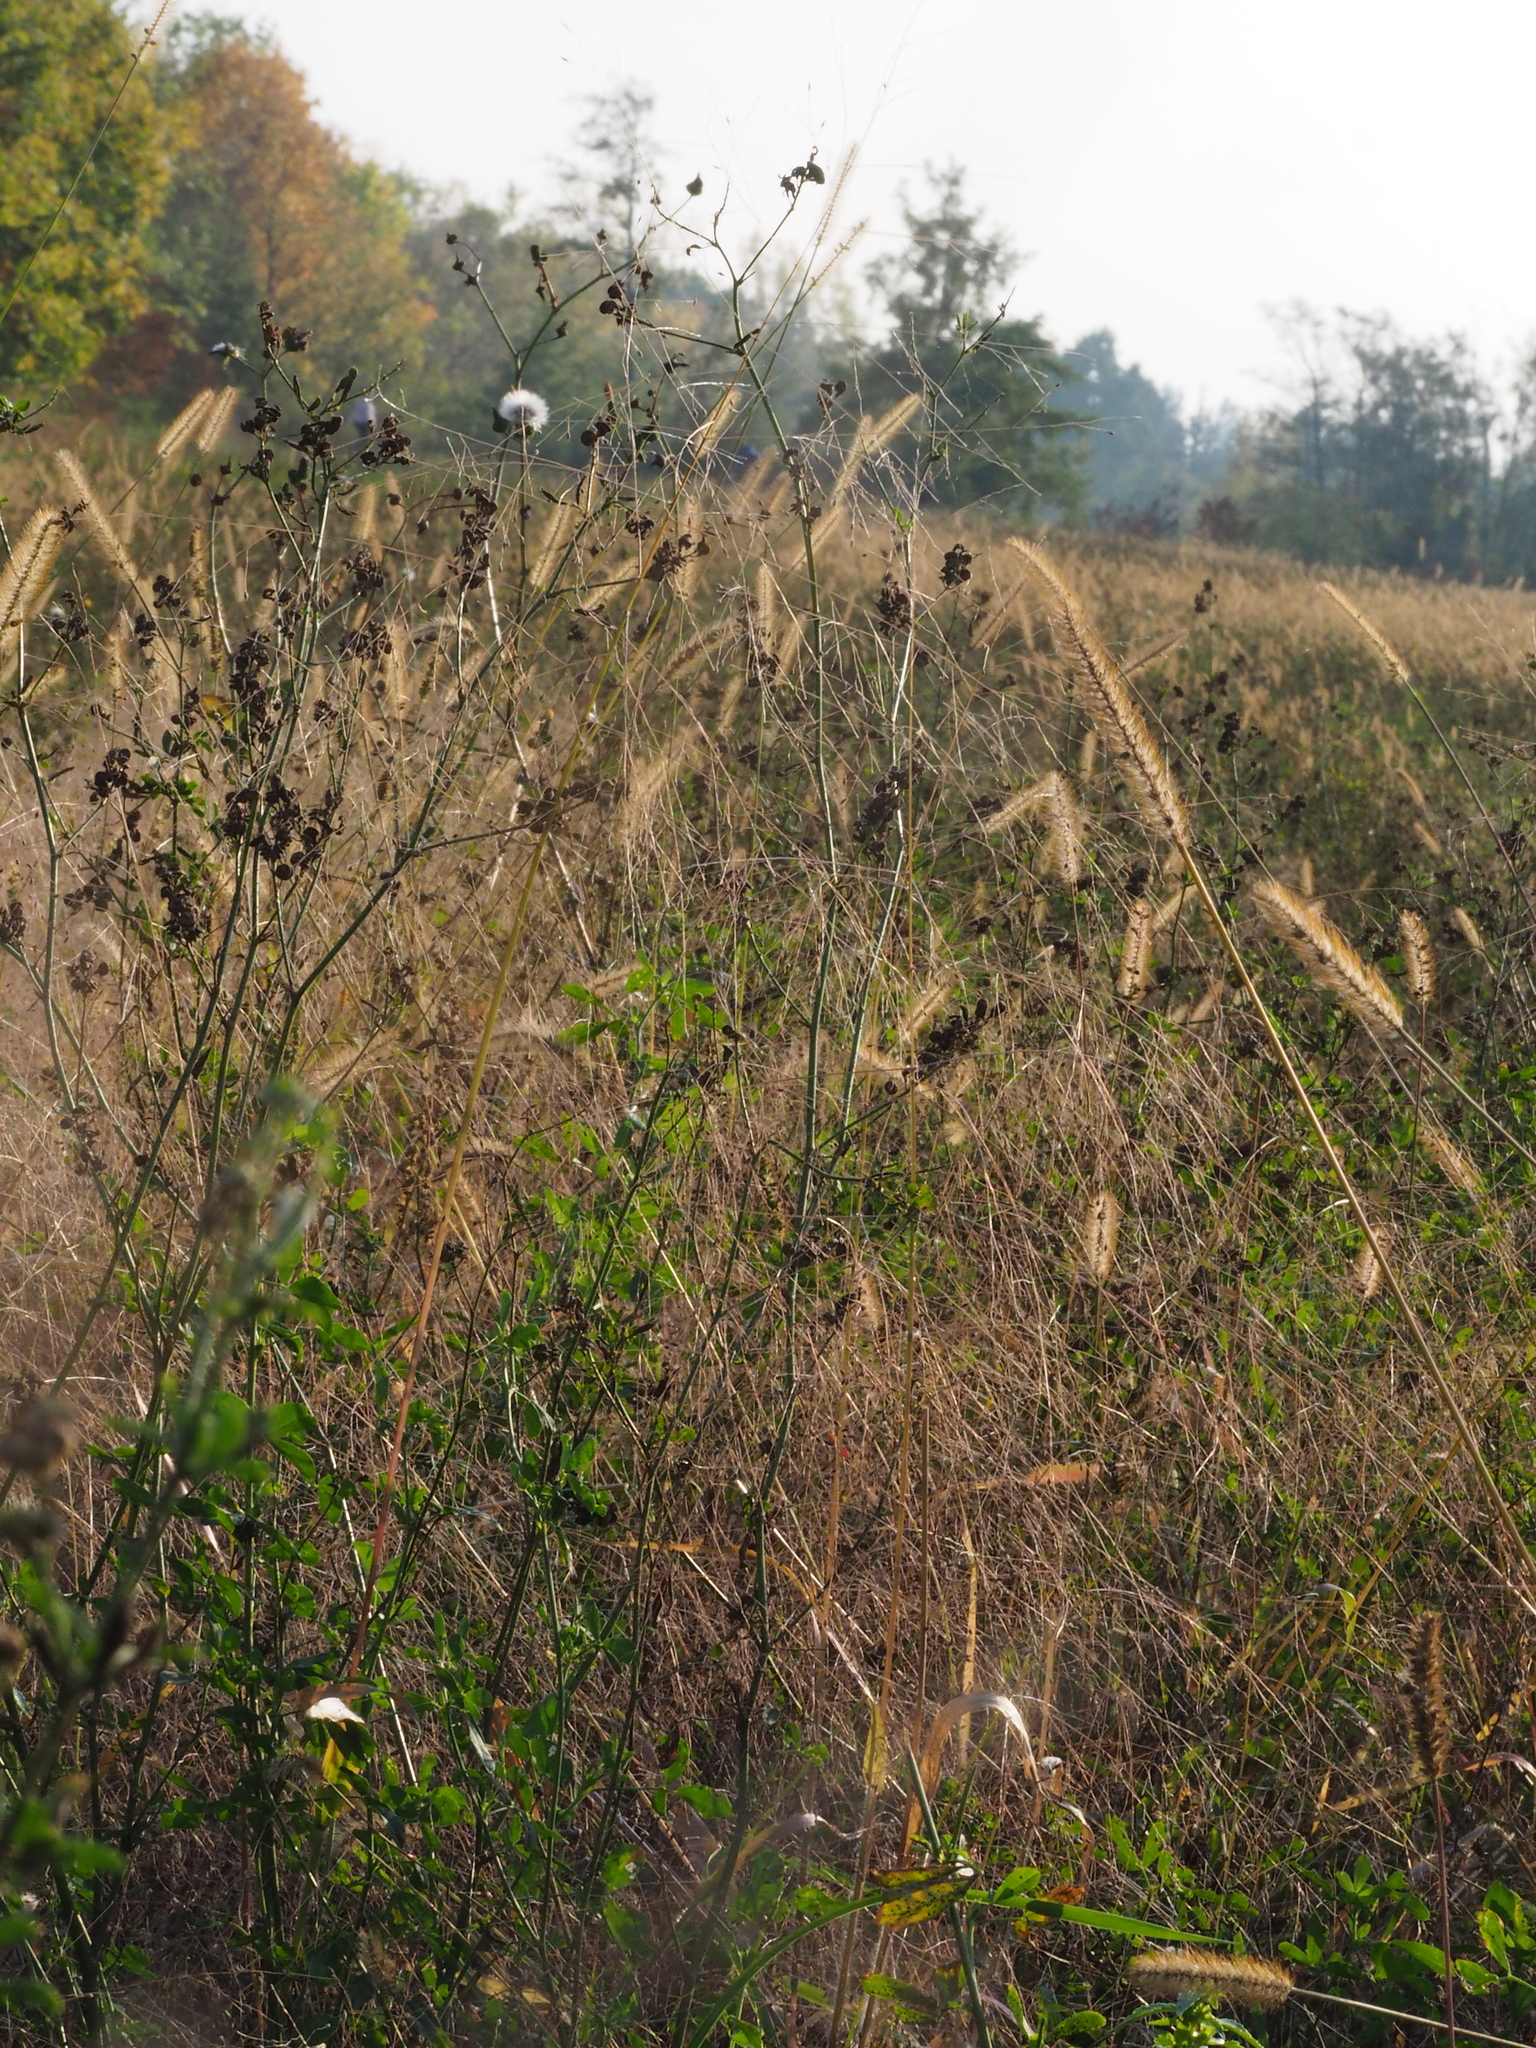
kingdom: Plantae
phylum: Tracheophyta
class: Liliopsida
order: Poales
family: Poaceae
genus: Panicum
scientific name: Panicum capillare
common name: Witch-grass
